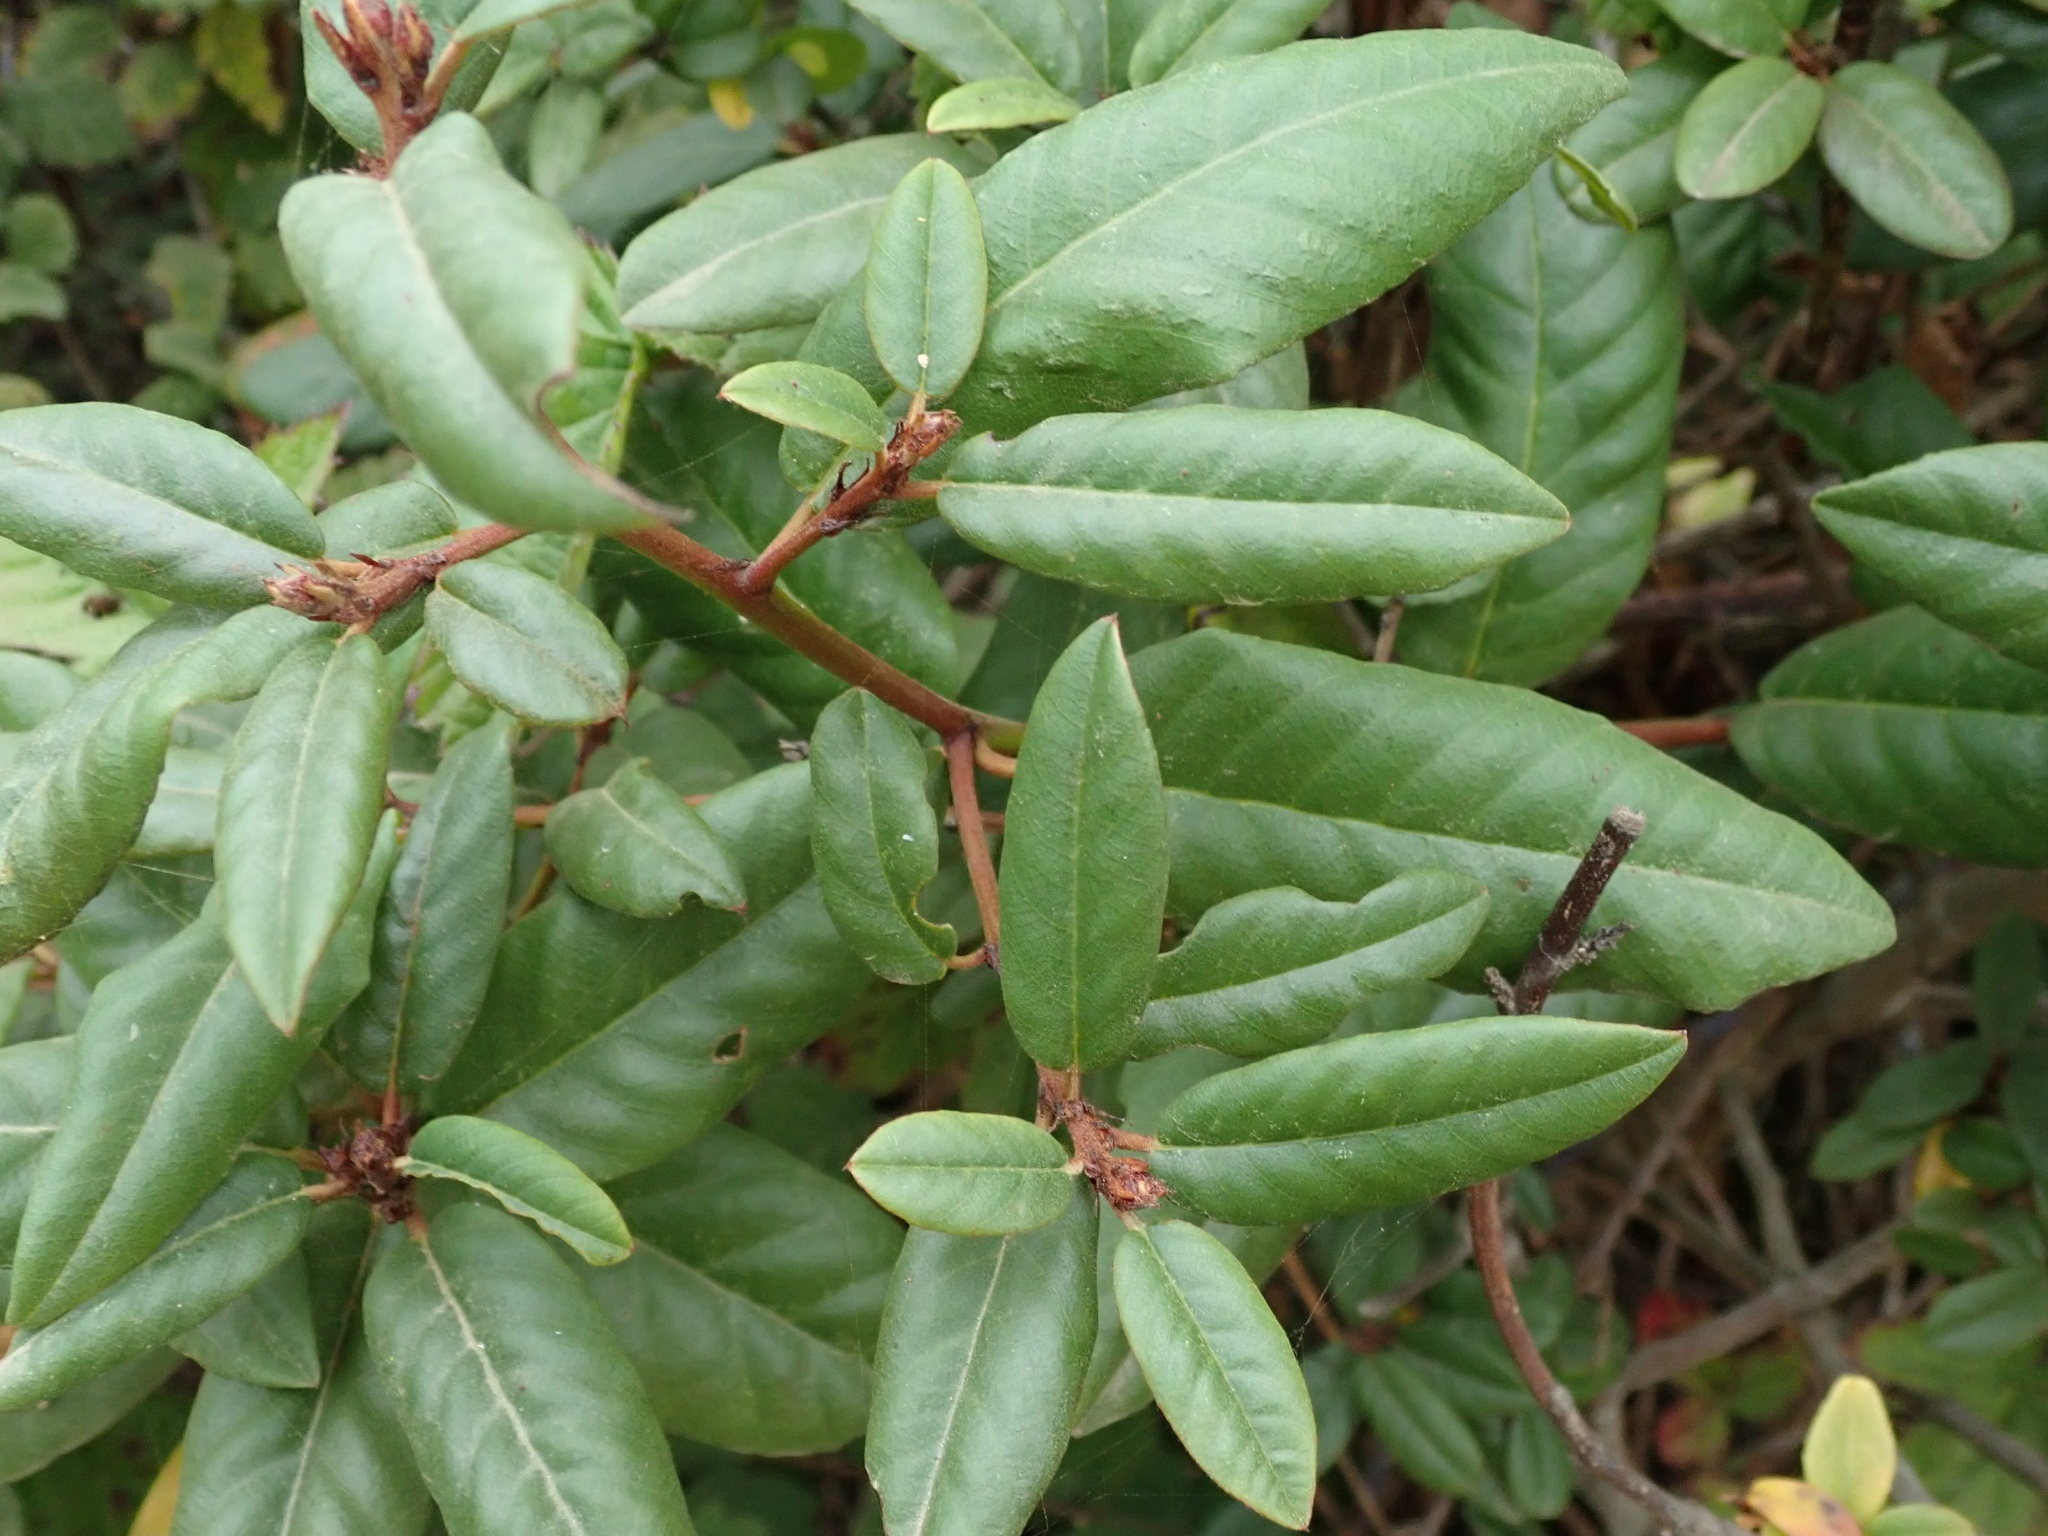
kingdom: Plantae
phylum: Tracheophyta
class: Magnoliopsida
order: Rosales
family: Rhamnaceae
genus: Frangula
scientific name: Frangula californica
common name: California buckthorn
